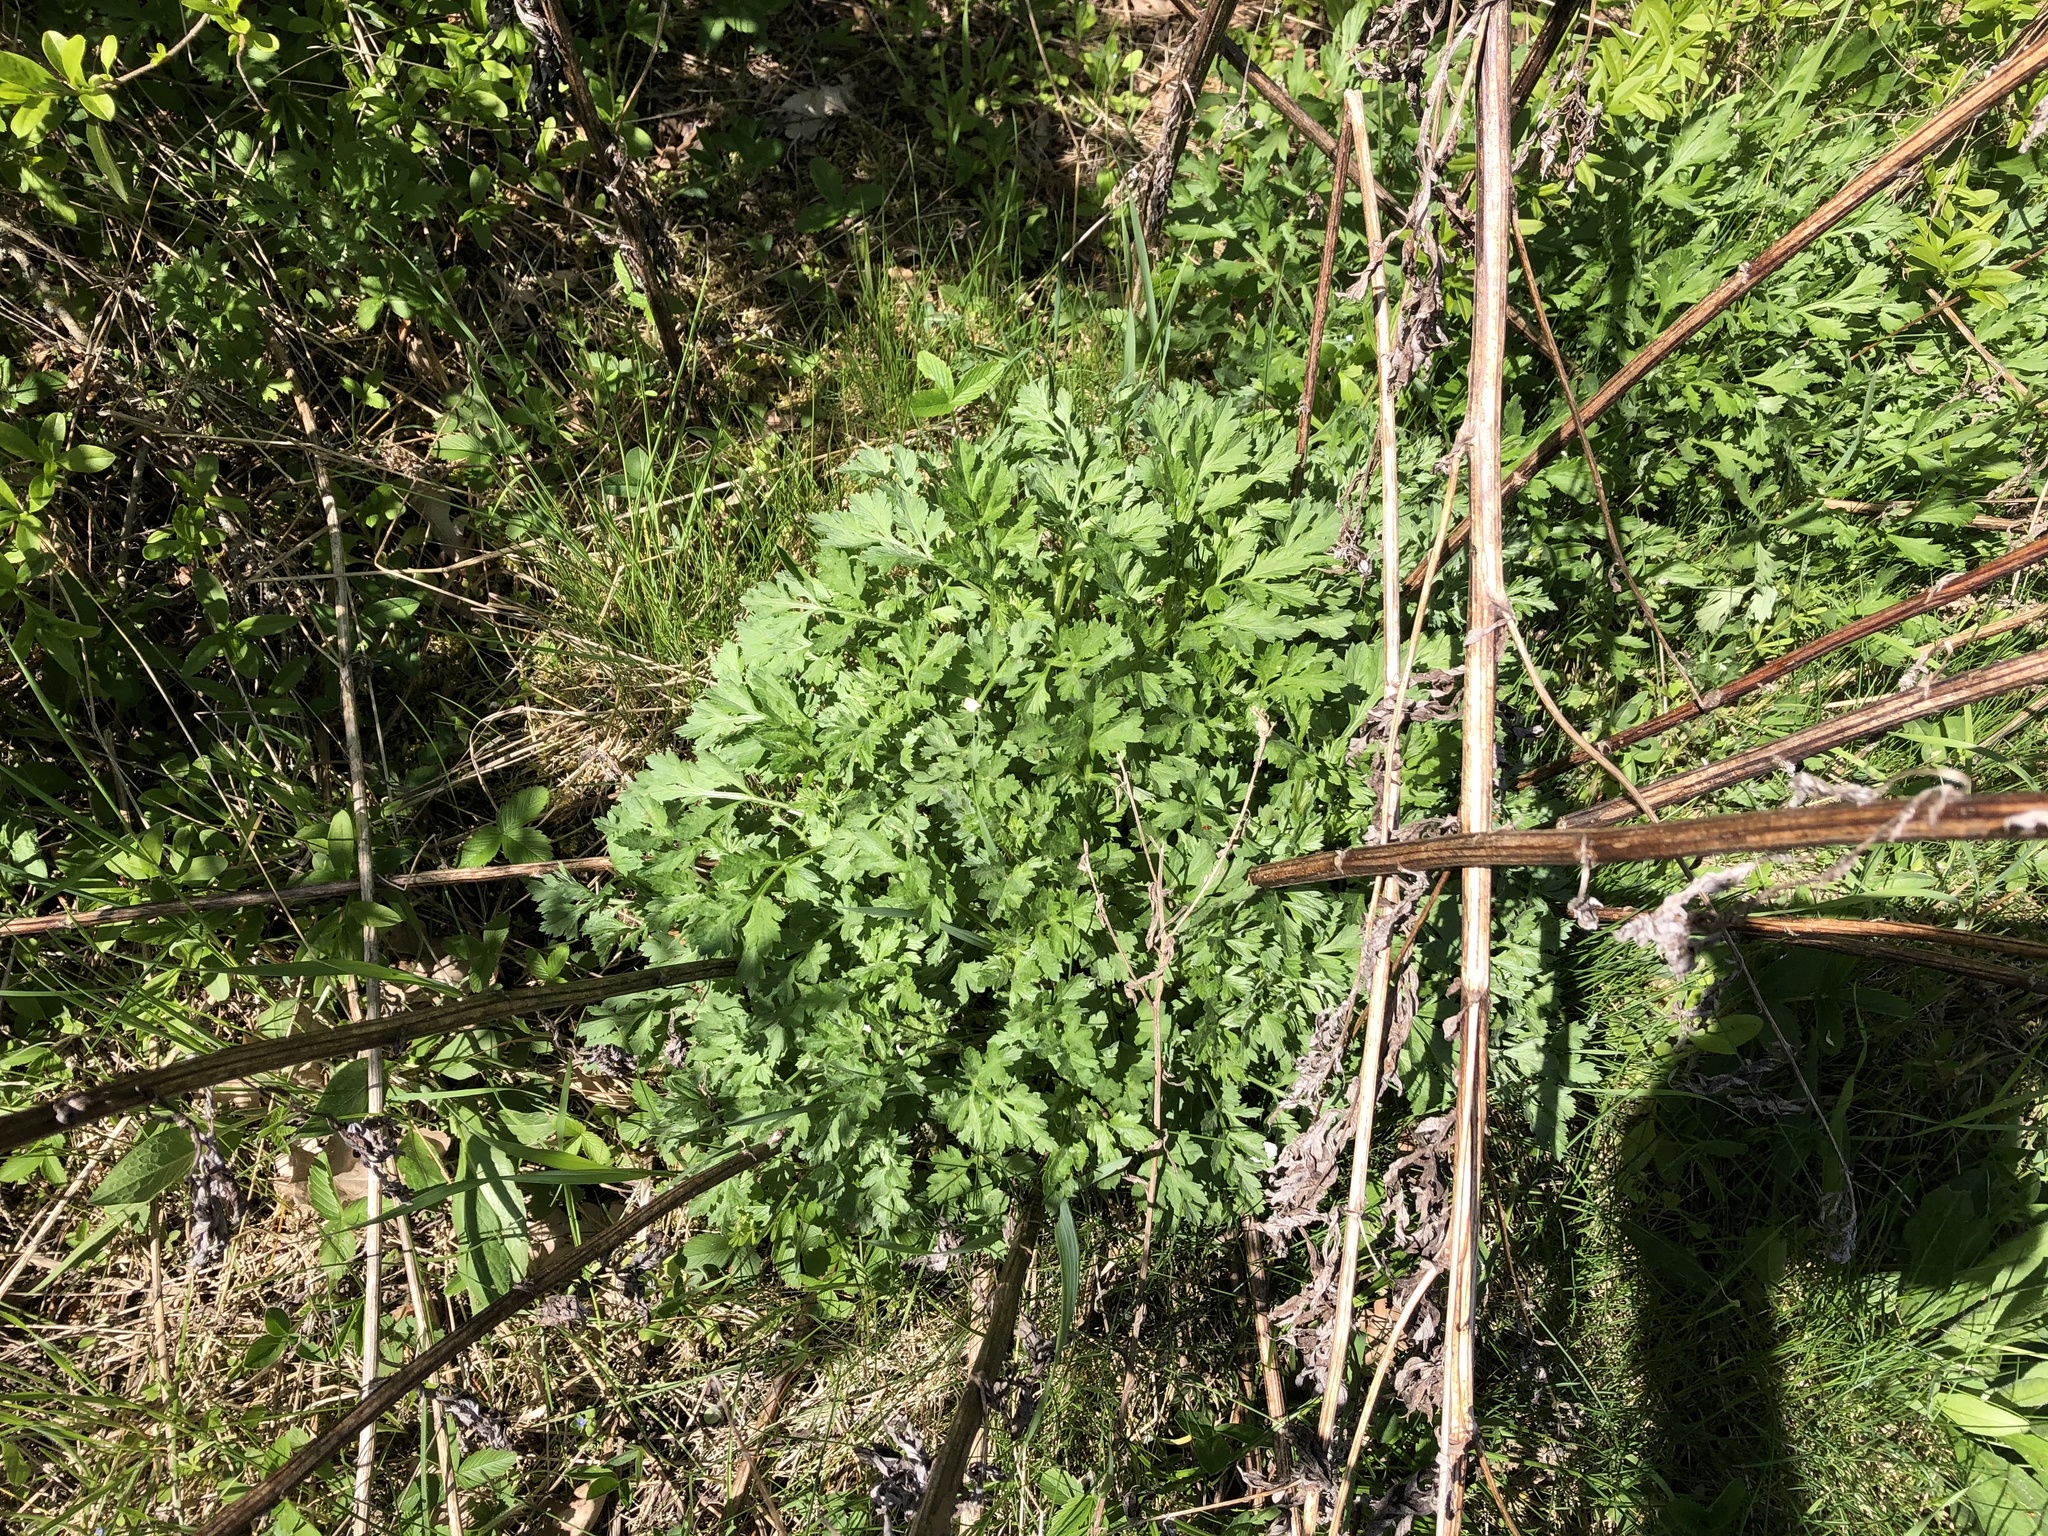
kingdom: Plantae
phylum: Tracheophyta
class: Magnoliopsida
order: Asterales
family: Asteraceae
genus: Artemisia
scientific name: Artemisia vulgaris
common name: Mugwort
